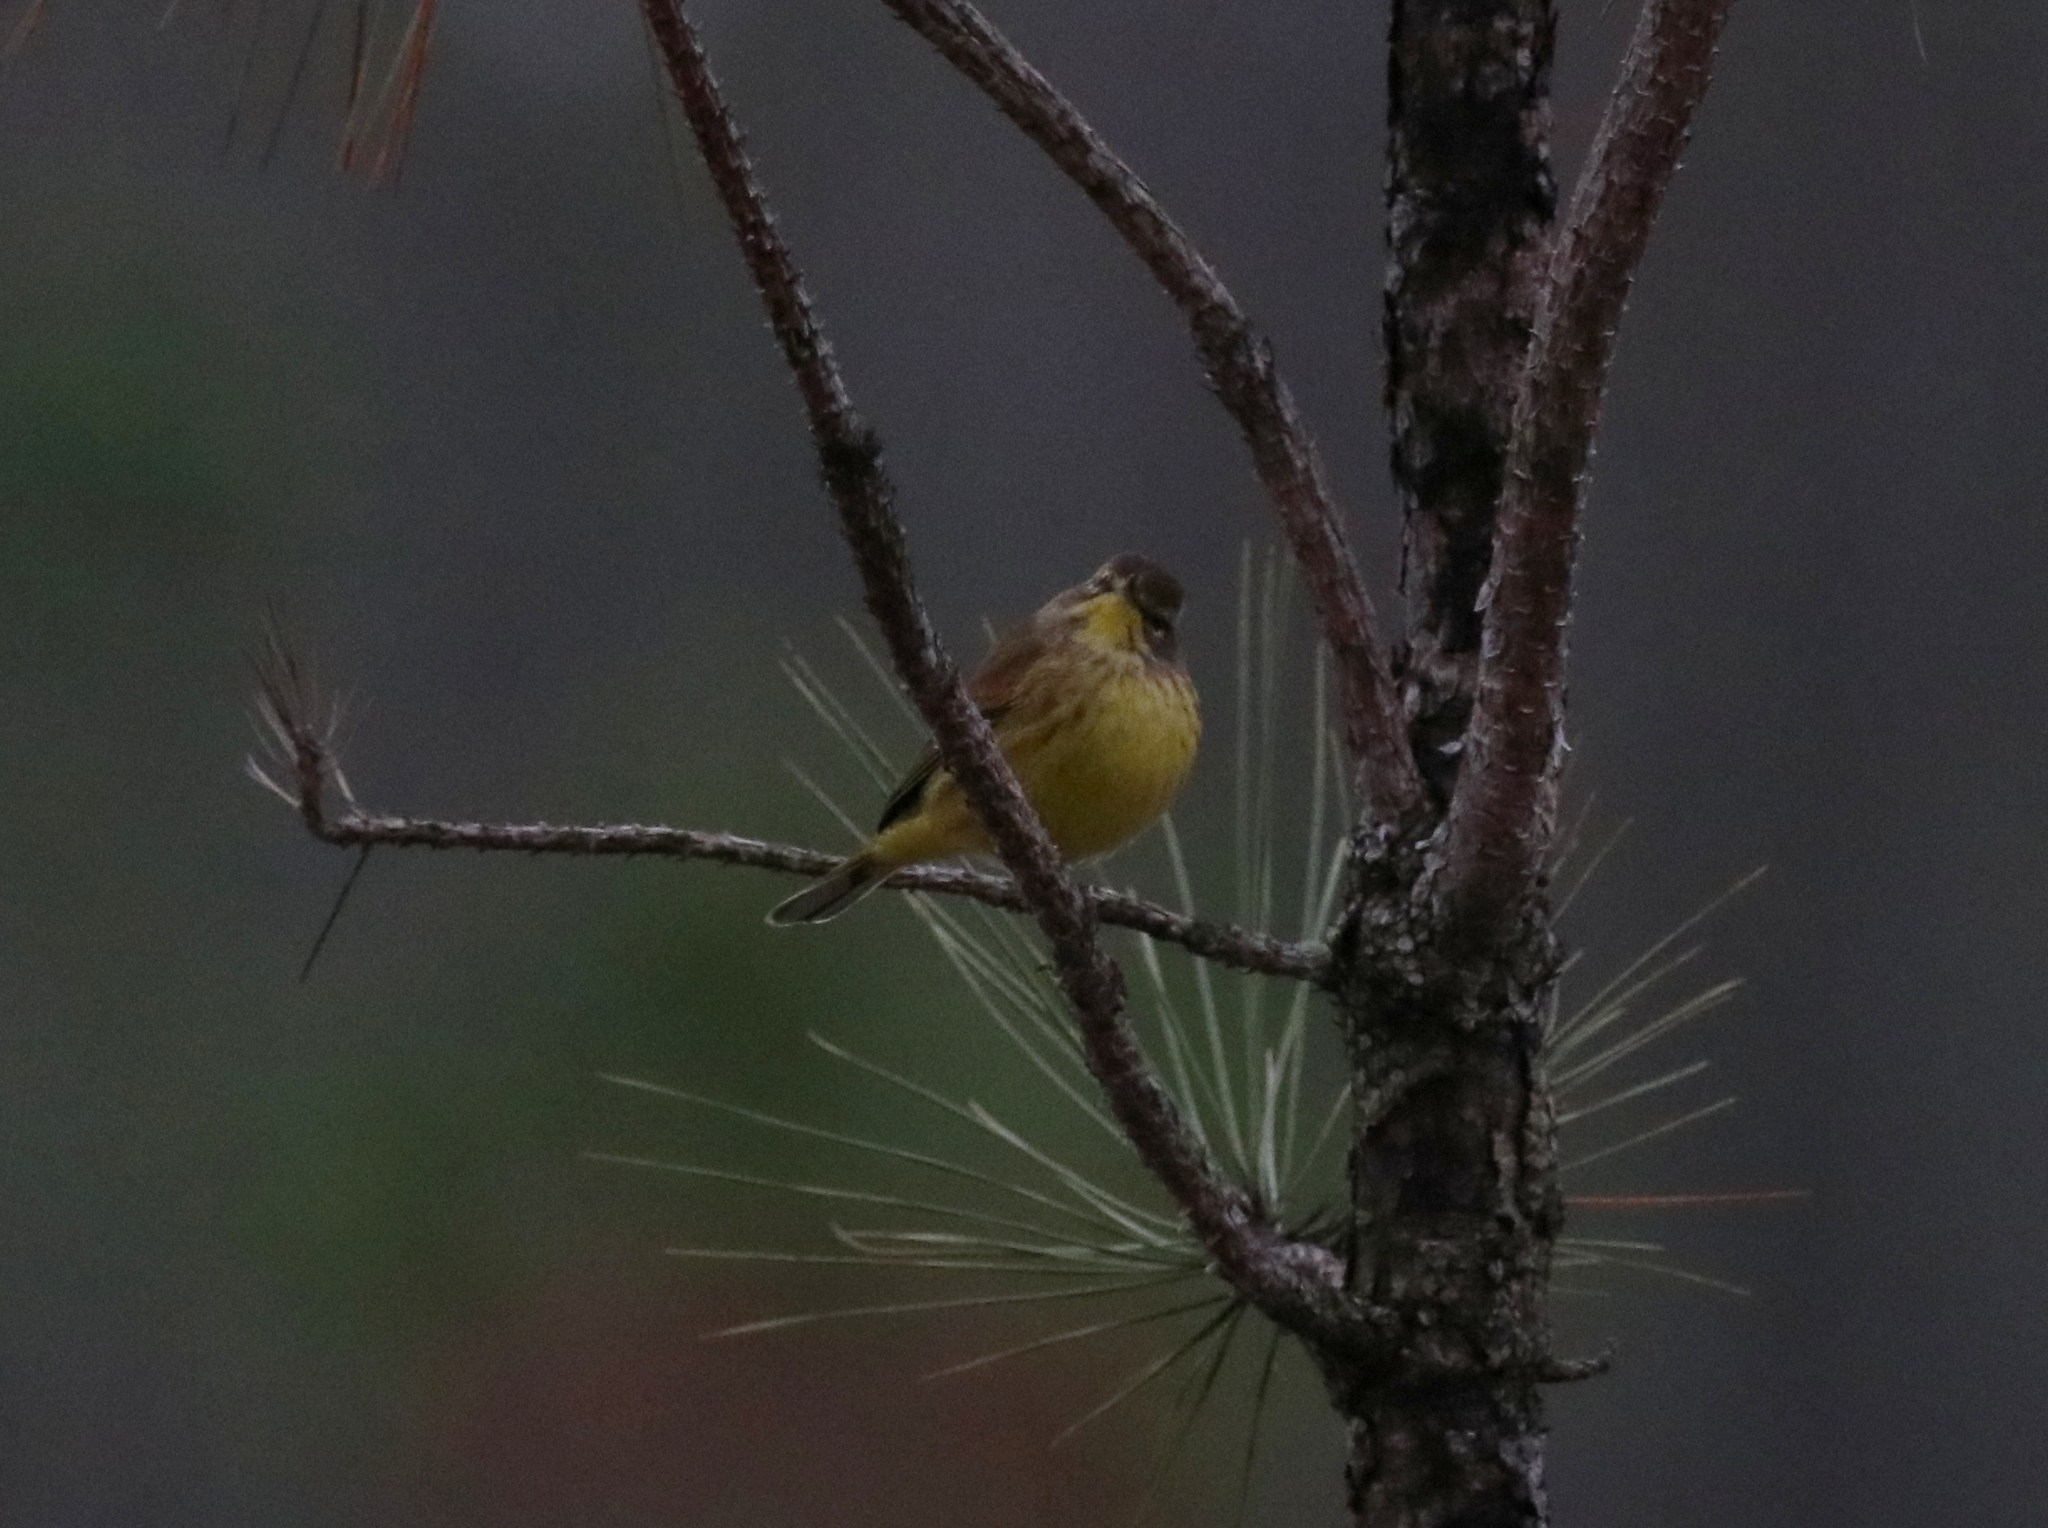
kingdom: Animalia
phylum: Chordata
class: Aves
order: Passeriformes
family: Parulidae
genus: Setophaga
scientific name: Setophaga palmarum
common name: Palm warbler
